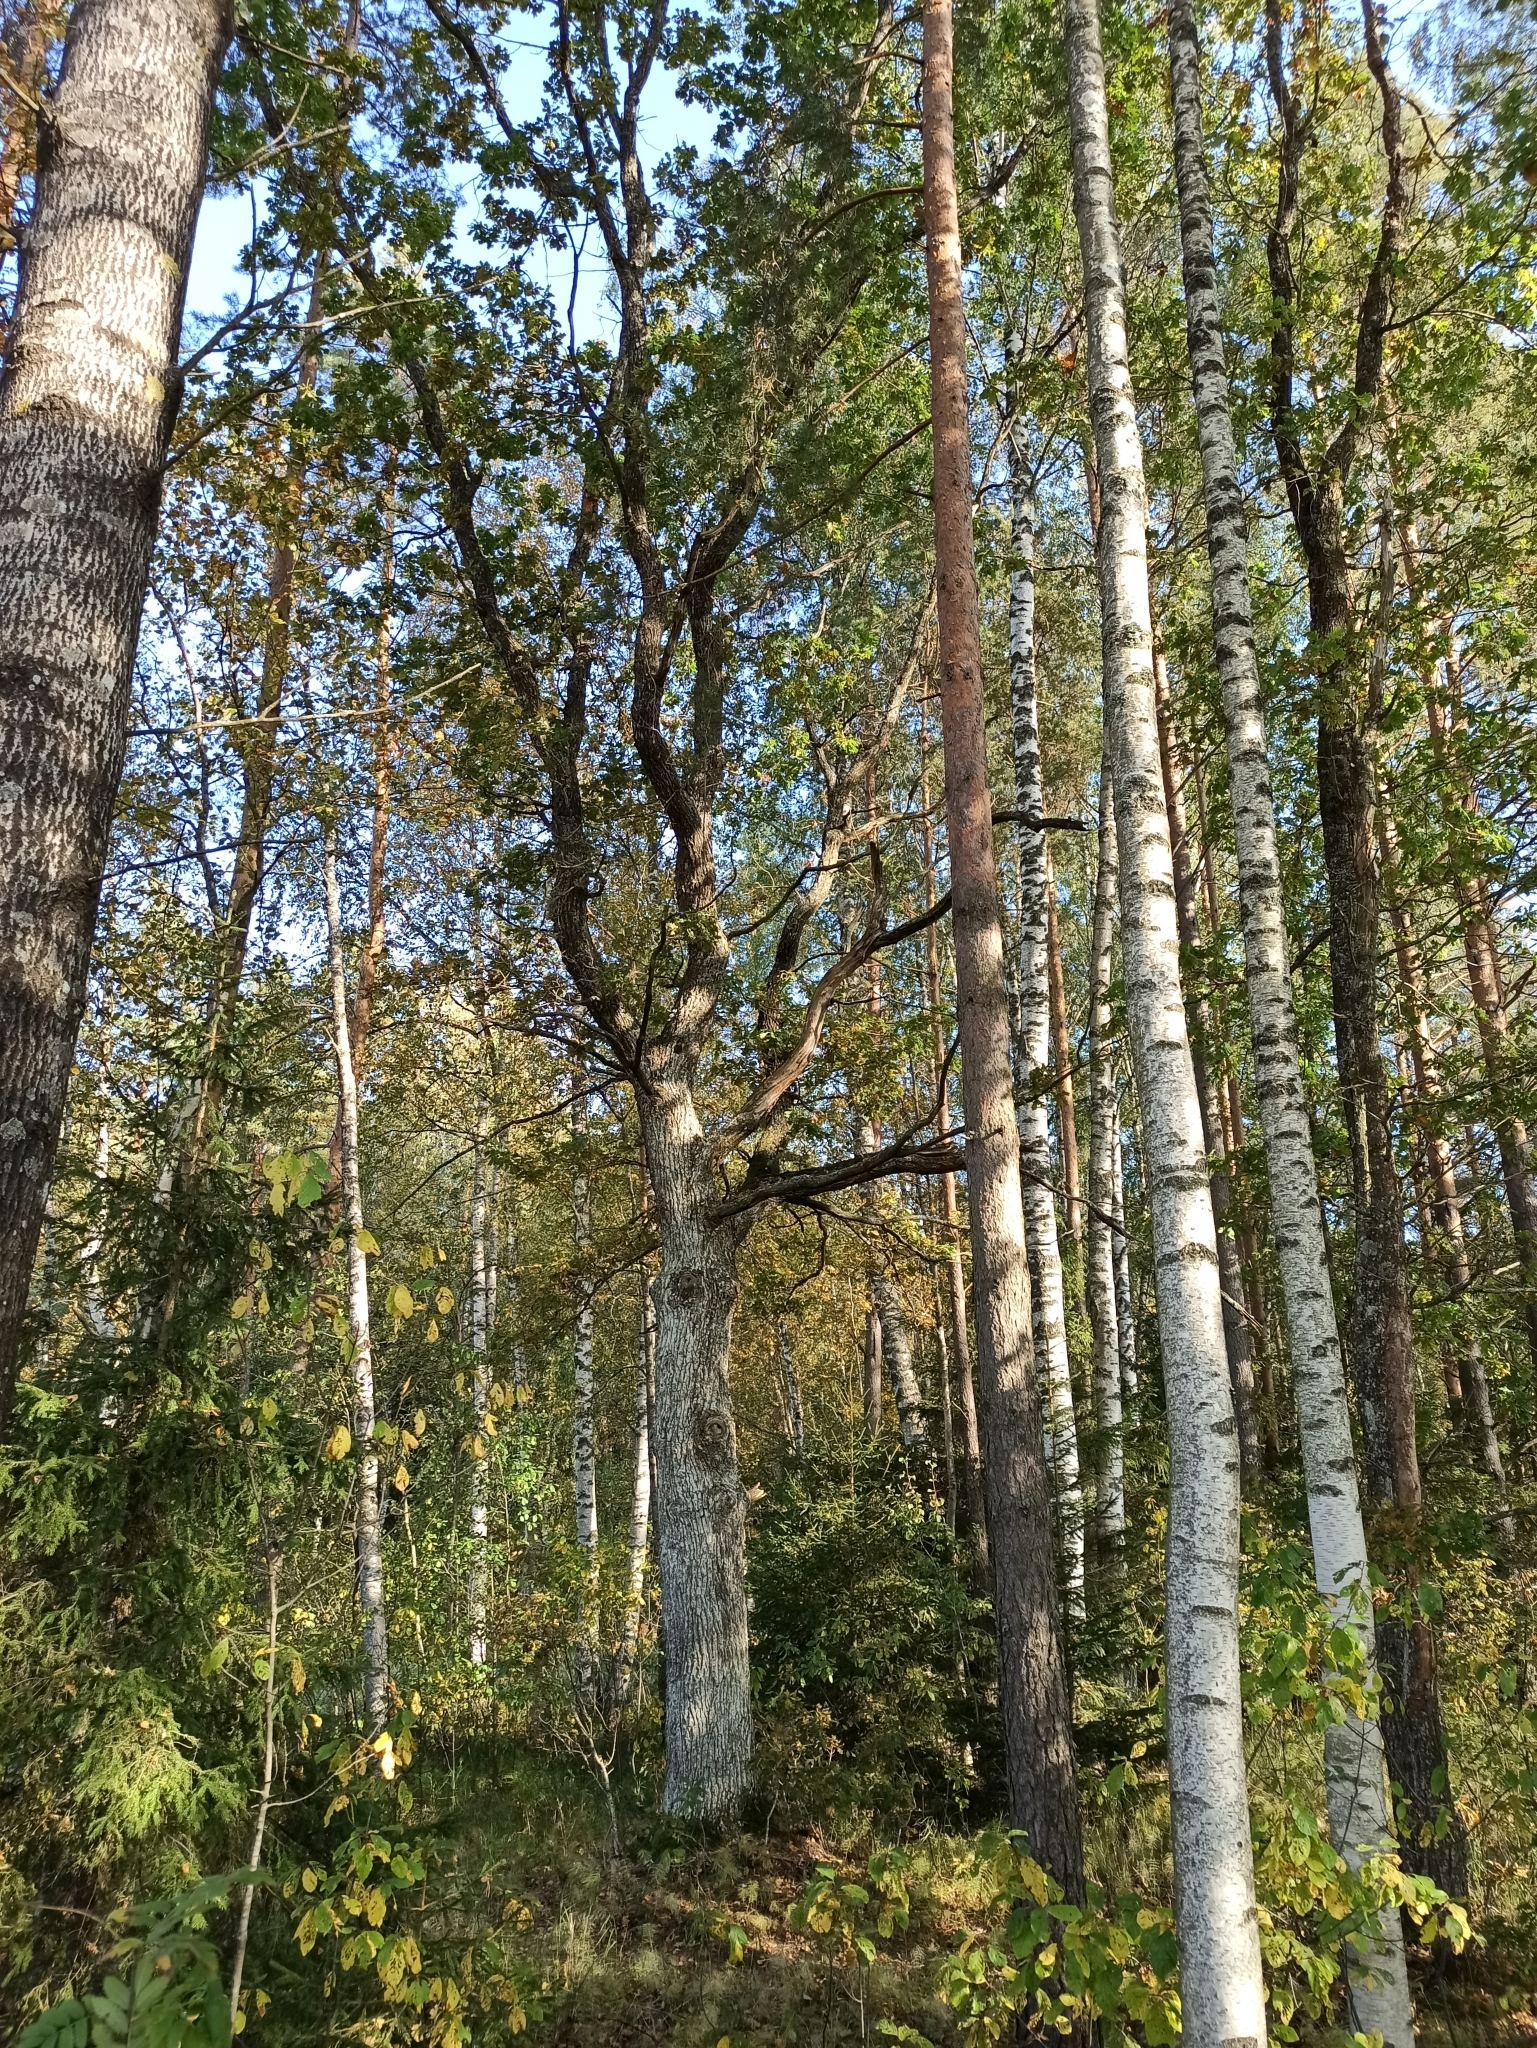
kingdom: Plantae
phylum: Tracheophyta
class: Magnoliopsida
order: Fagales
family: Fagaceae
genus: Quercus
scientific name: Quercus robur
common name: Pedunculate oak
